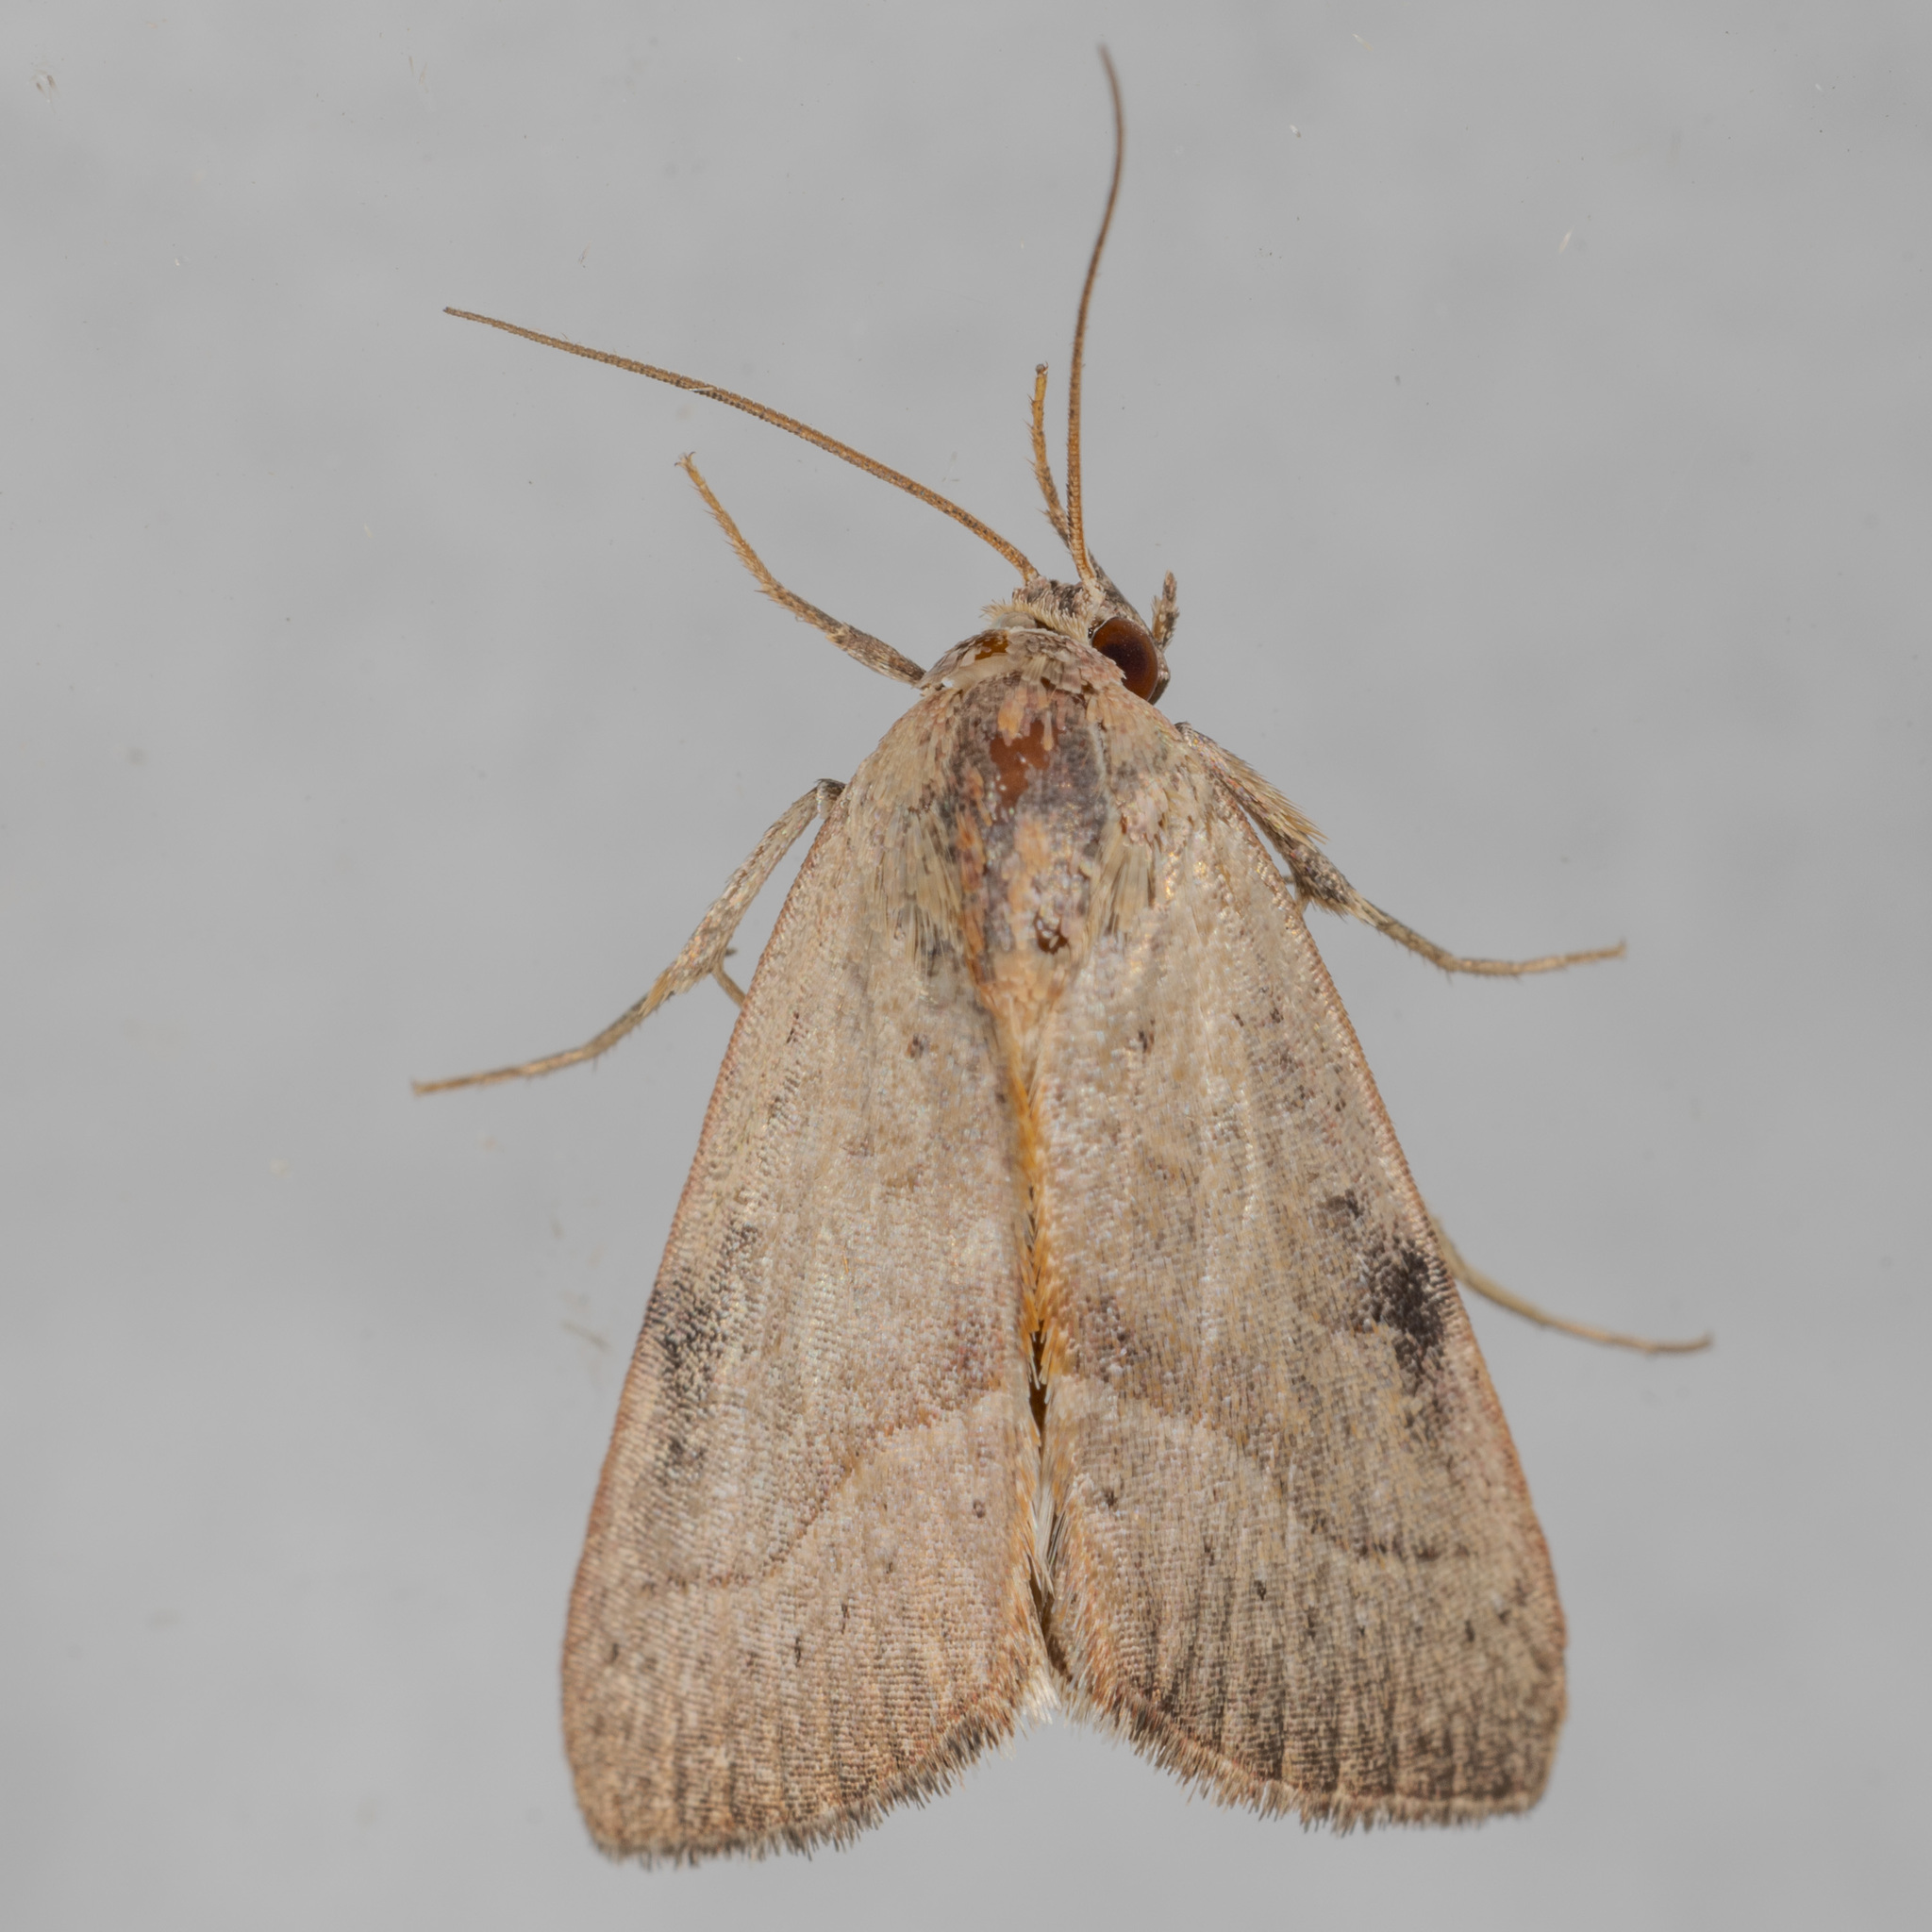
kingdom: Animalia
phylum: Arthropoda
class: Insecta
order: Lepidoptera
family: Noctuidae
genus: Galgula
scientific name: Galgula partita
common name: Wedgeling
